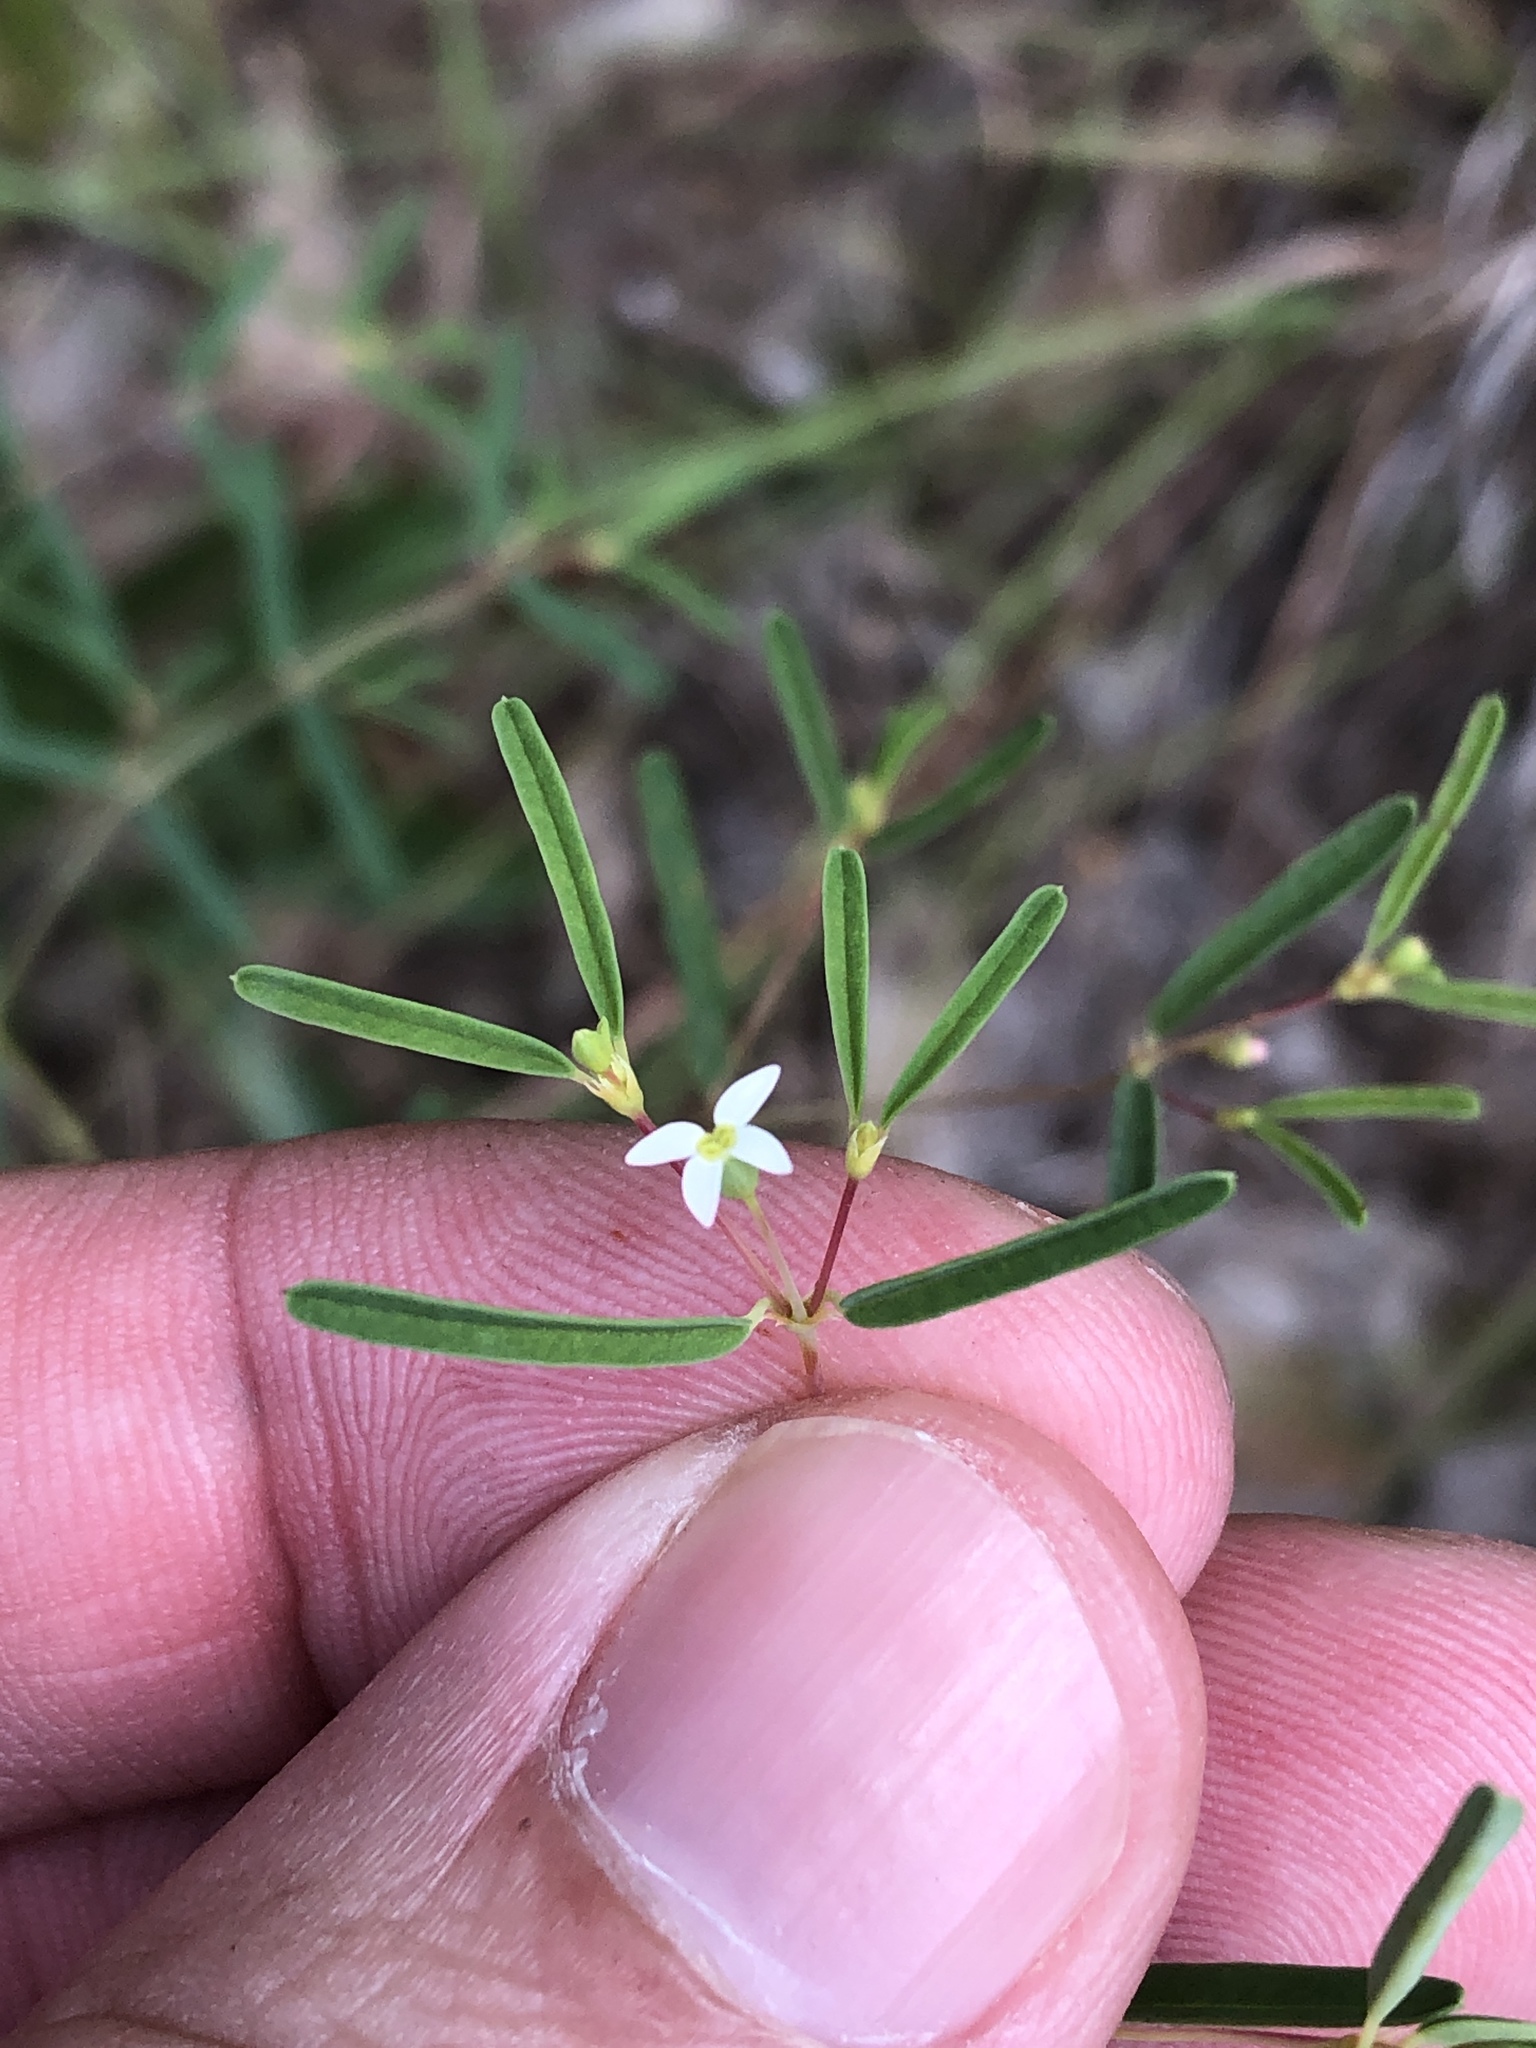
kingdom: Plantae
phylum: Tracheophyta
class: Magnoliopsida
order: Malpighiales
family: Euphorbiaceae
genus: Euphorbia
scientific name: Euphorbia missurica
